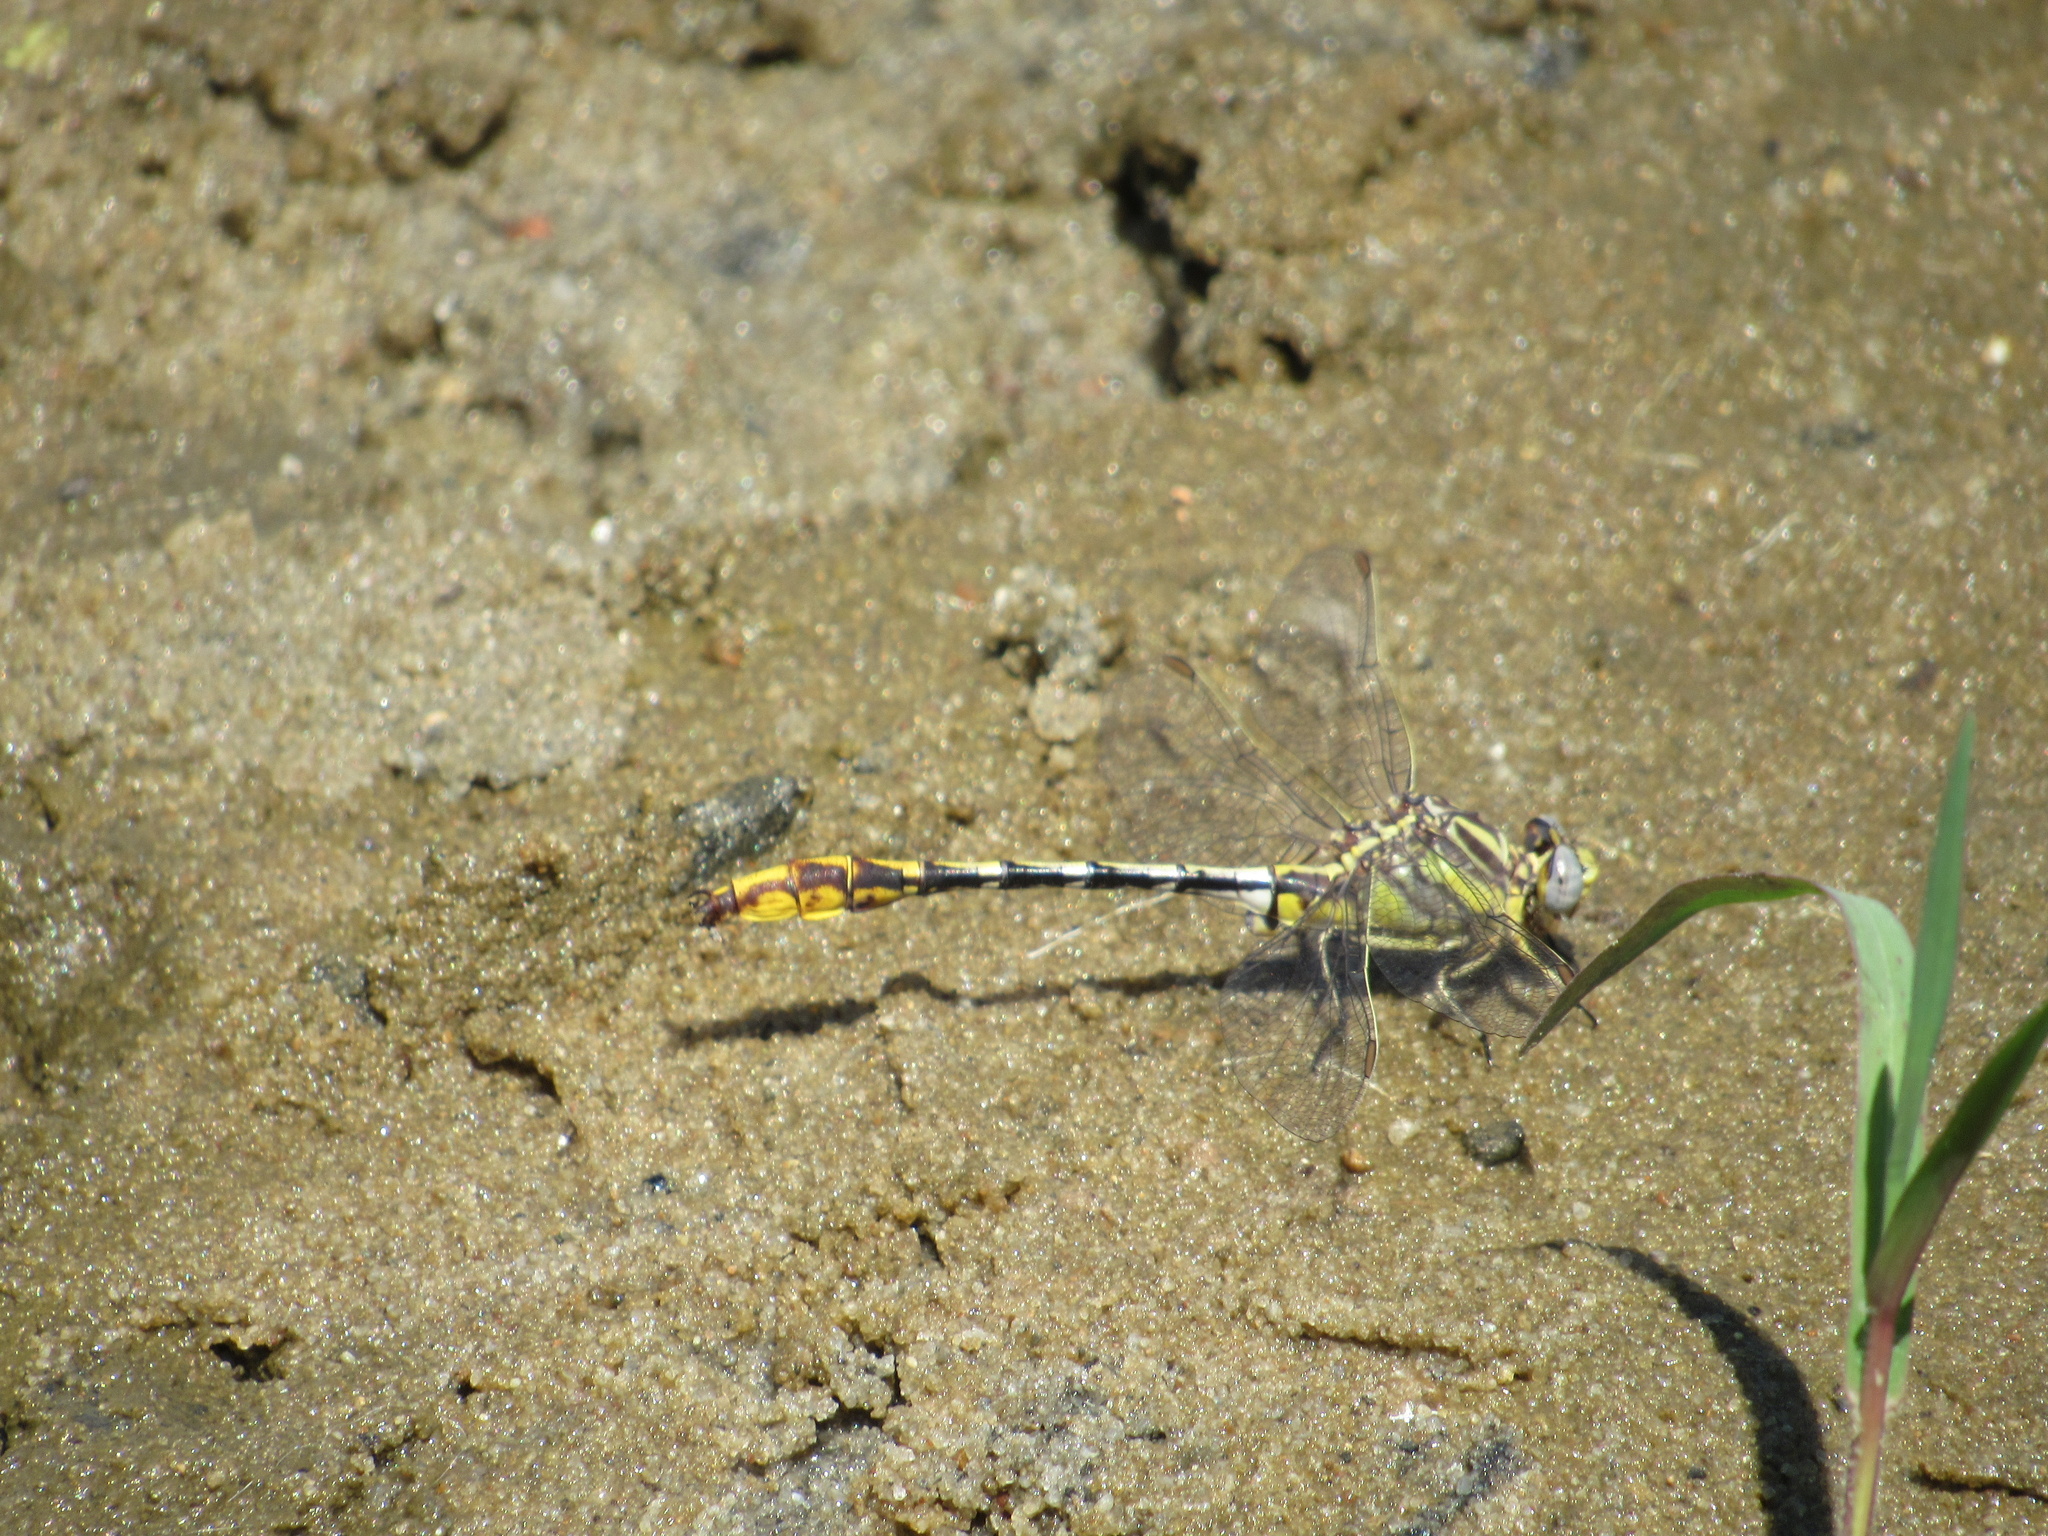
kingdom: Animalia
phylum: Arthropoda
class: Insecta
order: Odonata
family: Gomphidae
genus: Phanogomphus
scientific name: Phanogomphus militaris
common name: Sulphur-tipped clubtail
